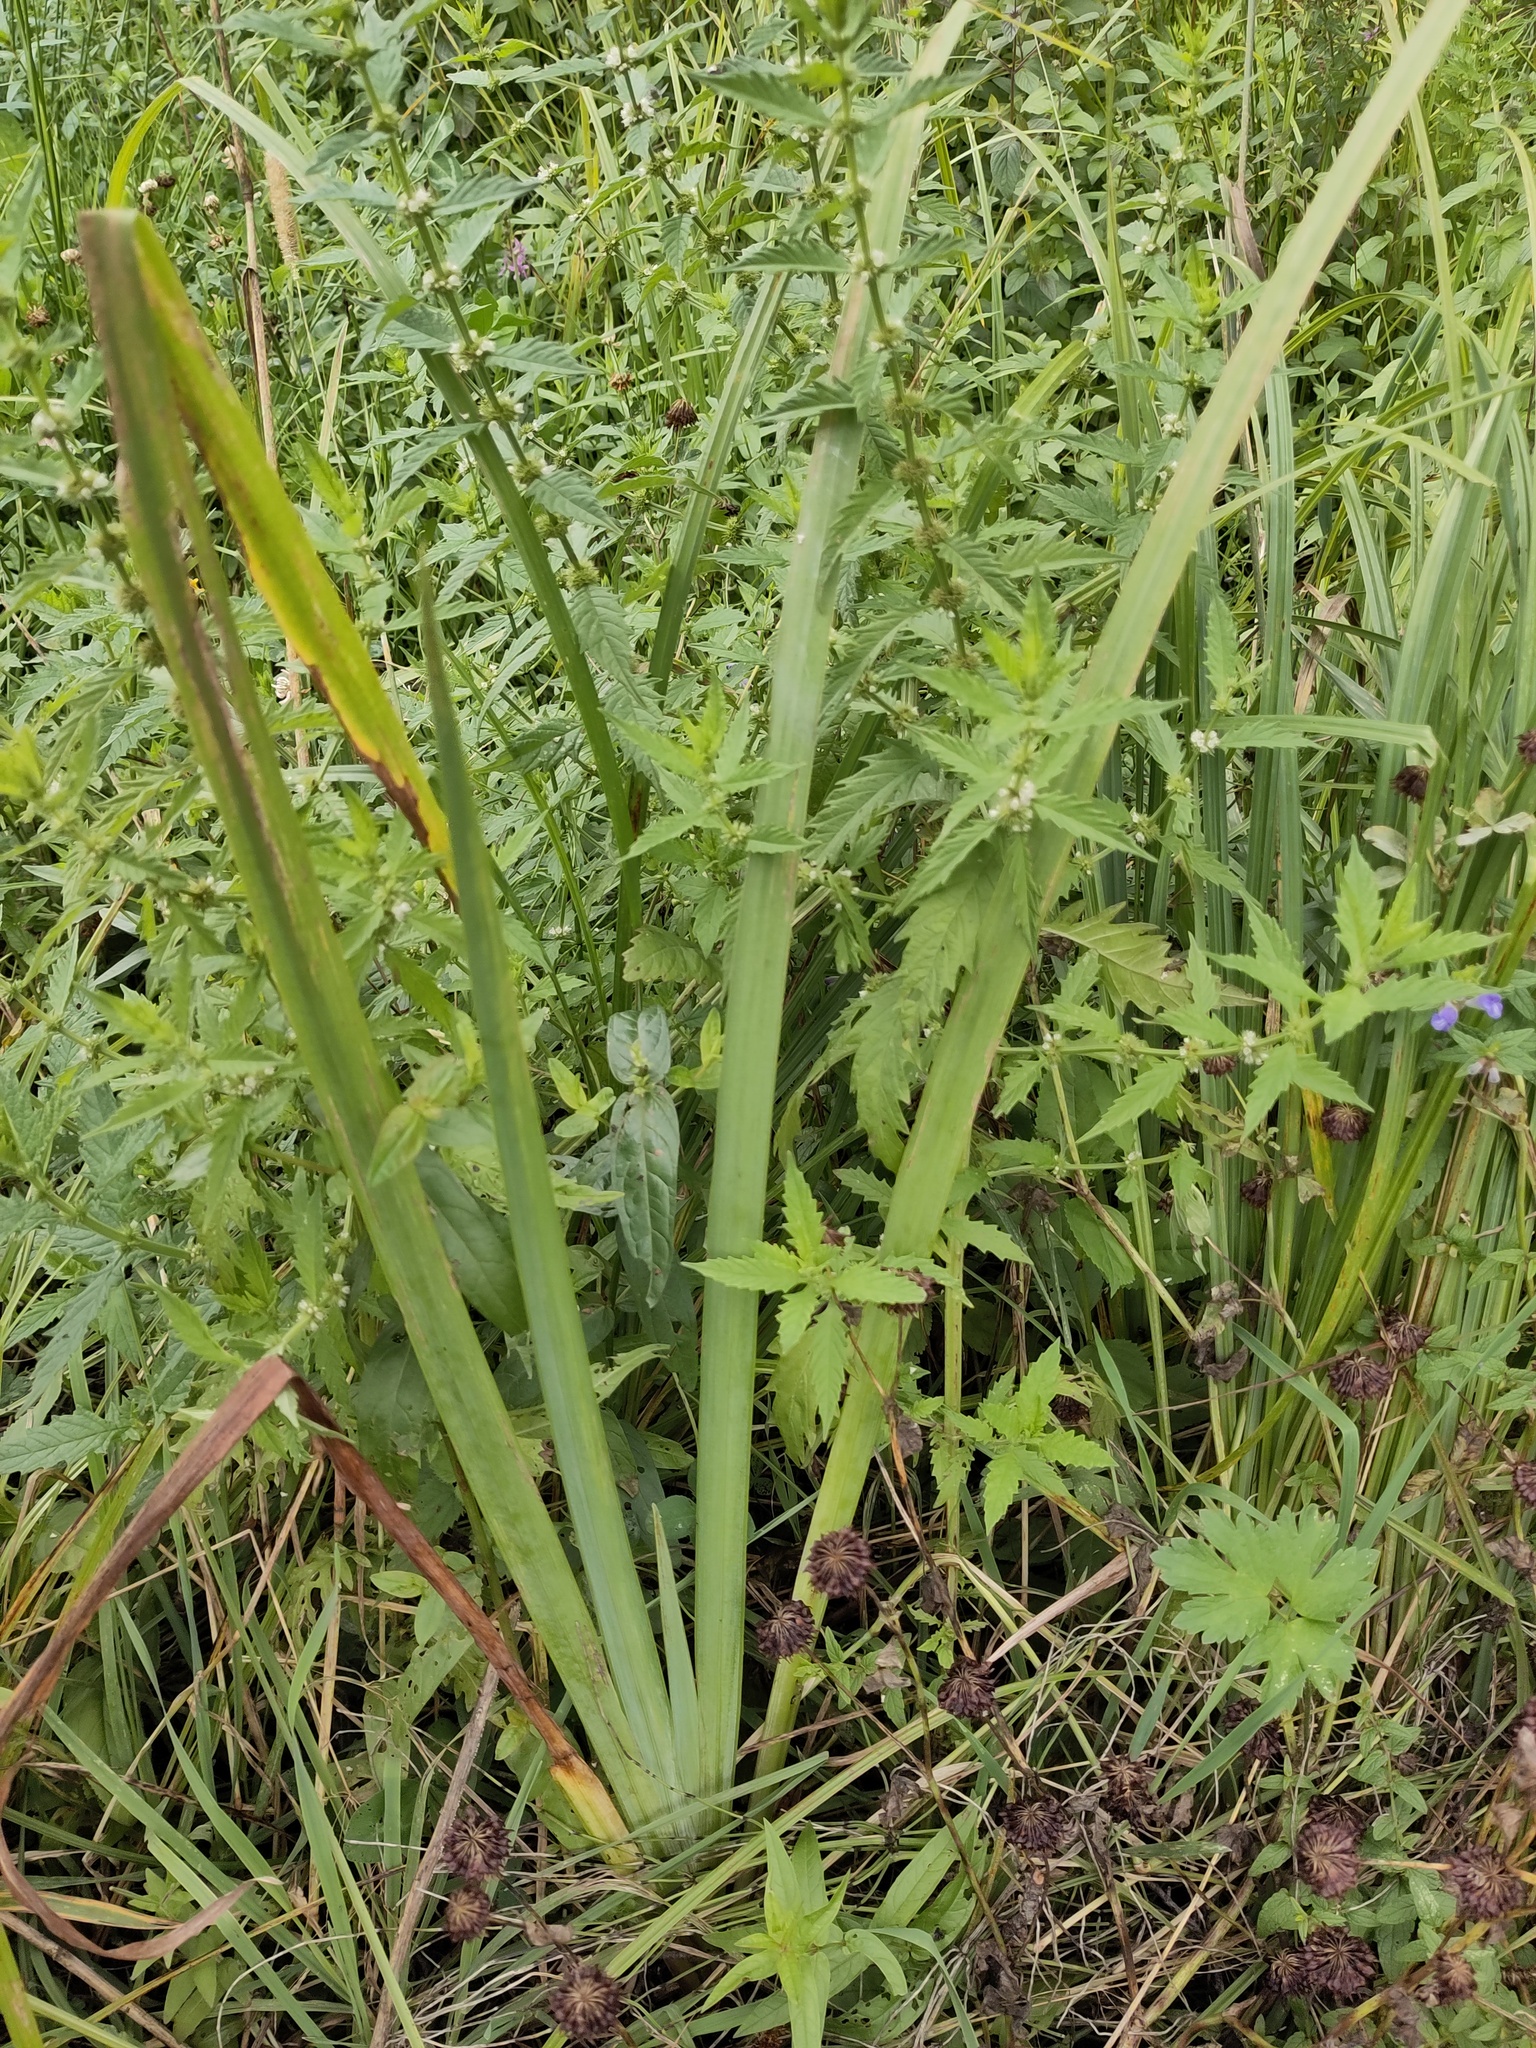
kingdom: Plantae
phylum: Tracheophyta
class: Liliopsida
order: Asparagales
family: Iridaceae
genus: Iris
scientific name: Iris pseudacorus
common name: Yellow flag
